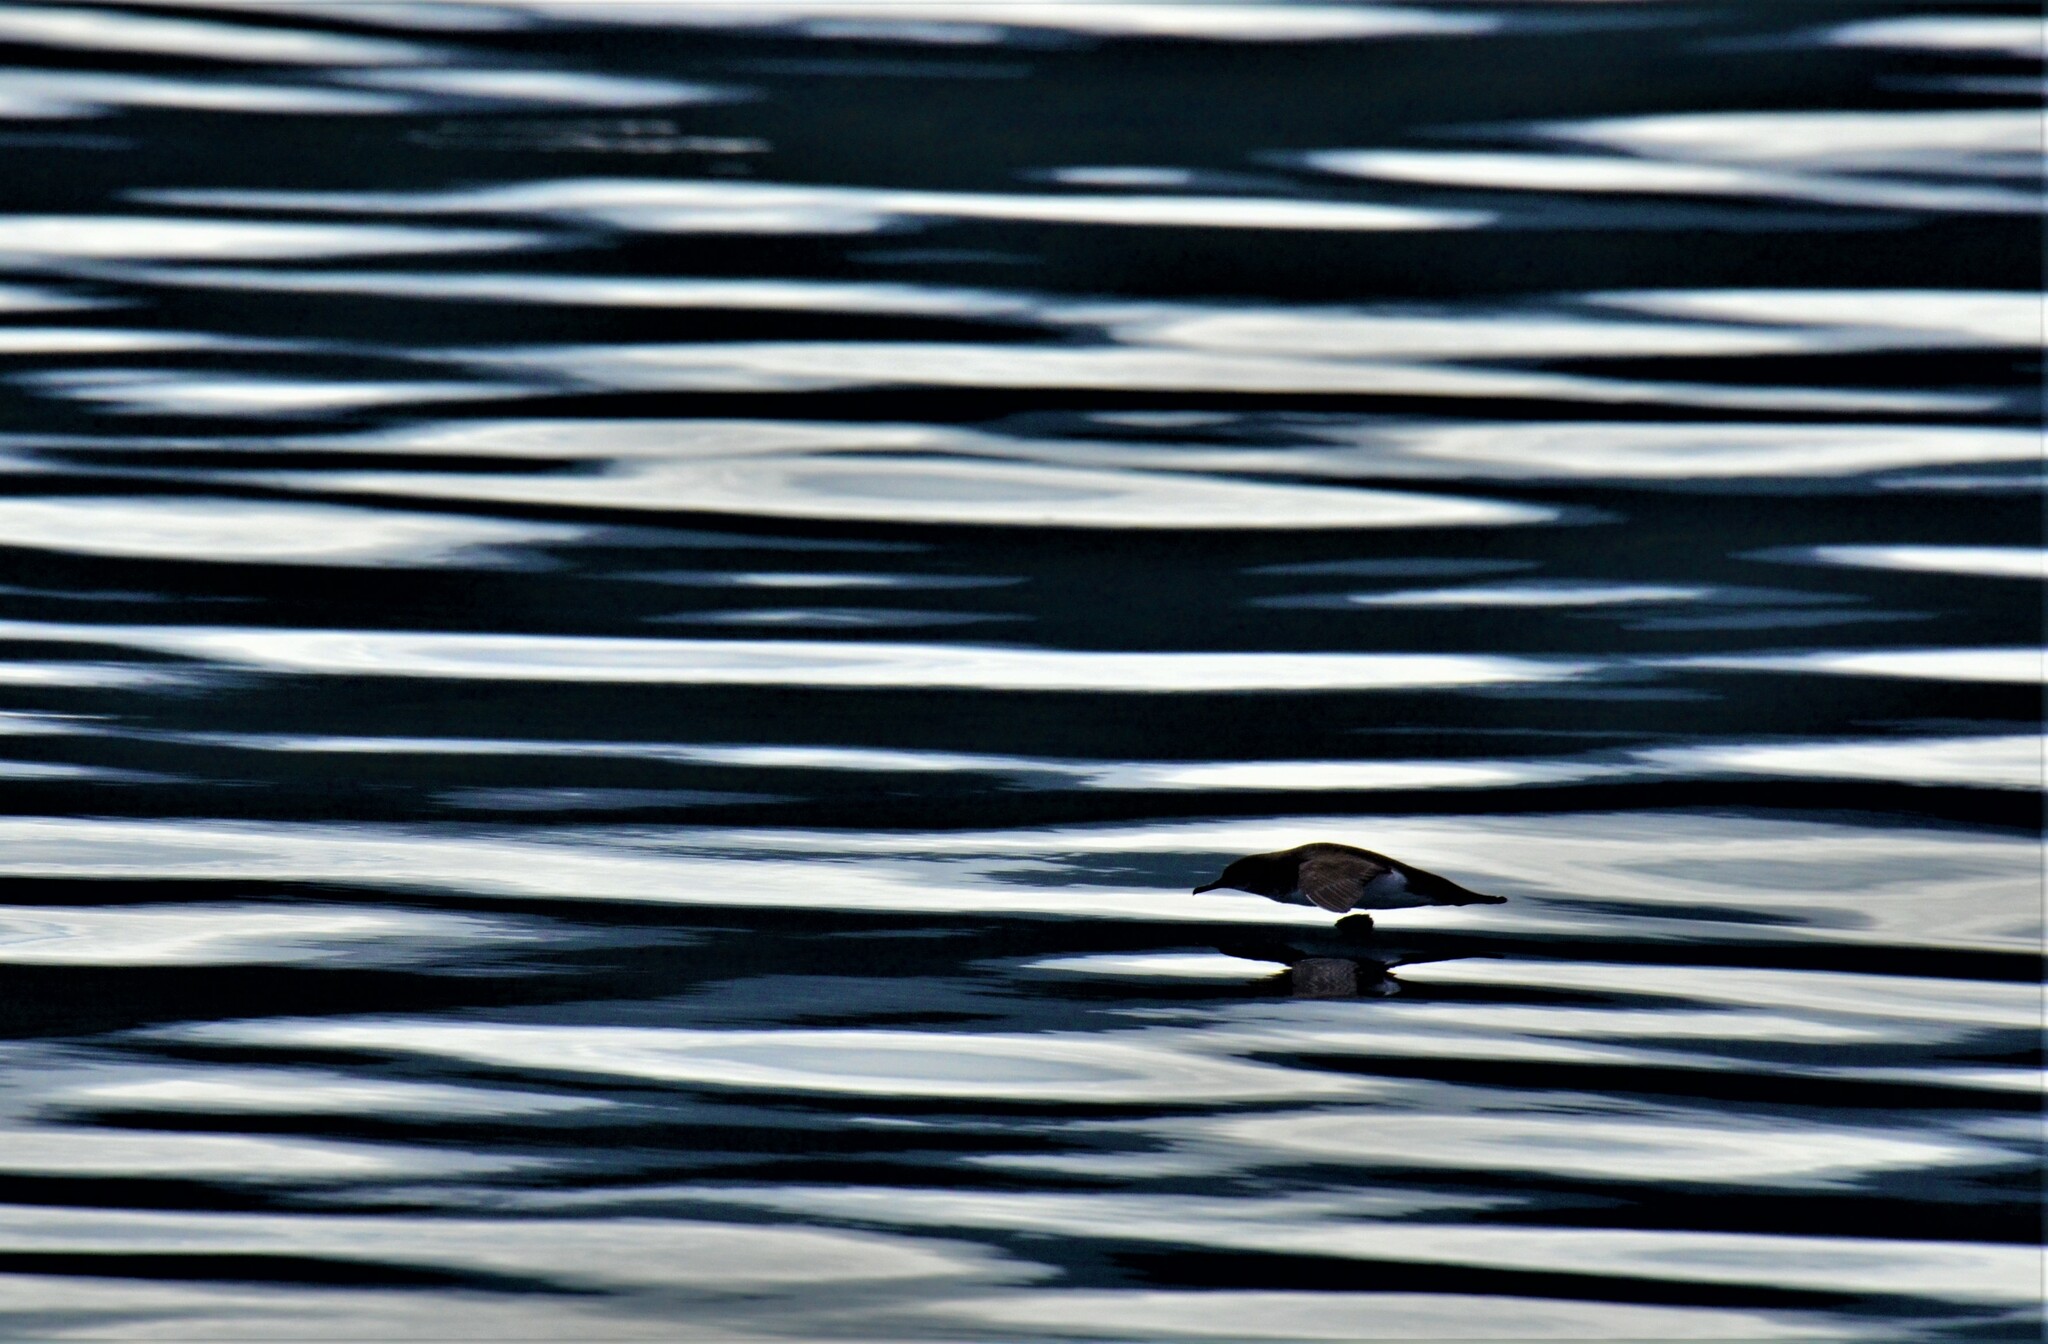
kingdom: Animalia
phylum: Chordata
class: Aves
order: Procellariiformes
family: Procellariidae
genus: Puffinus
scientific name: Puffinus gavia
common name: Fluttering shearwater
